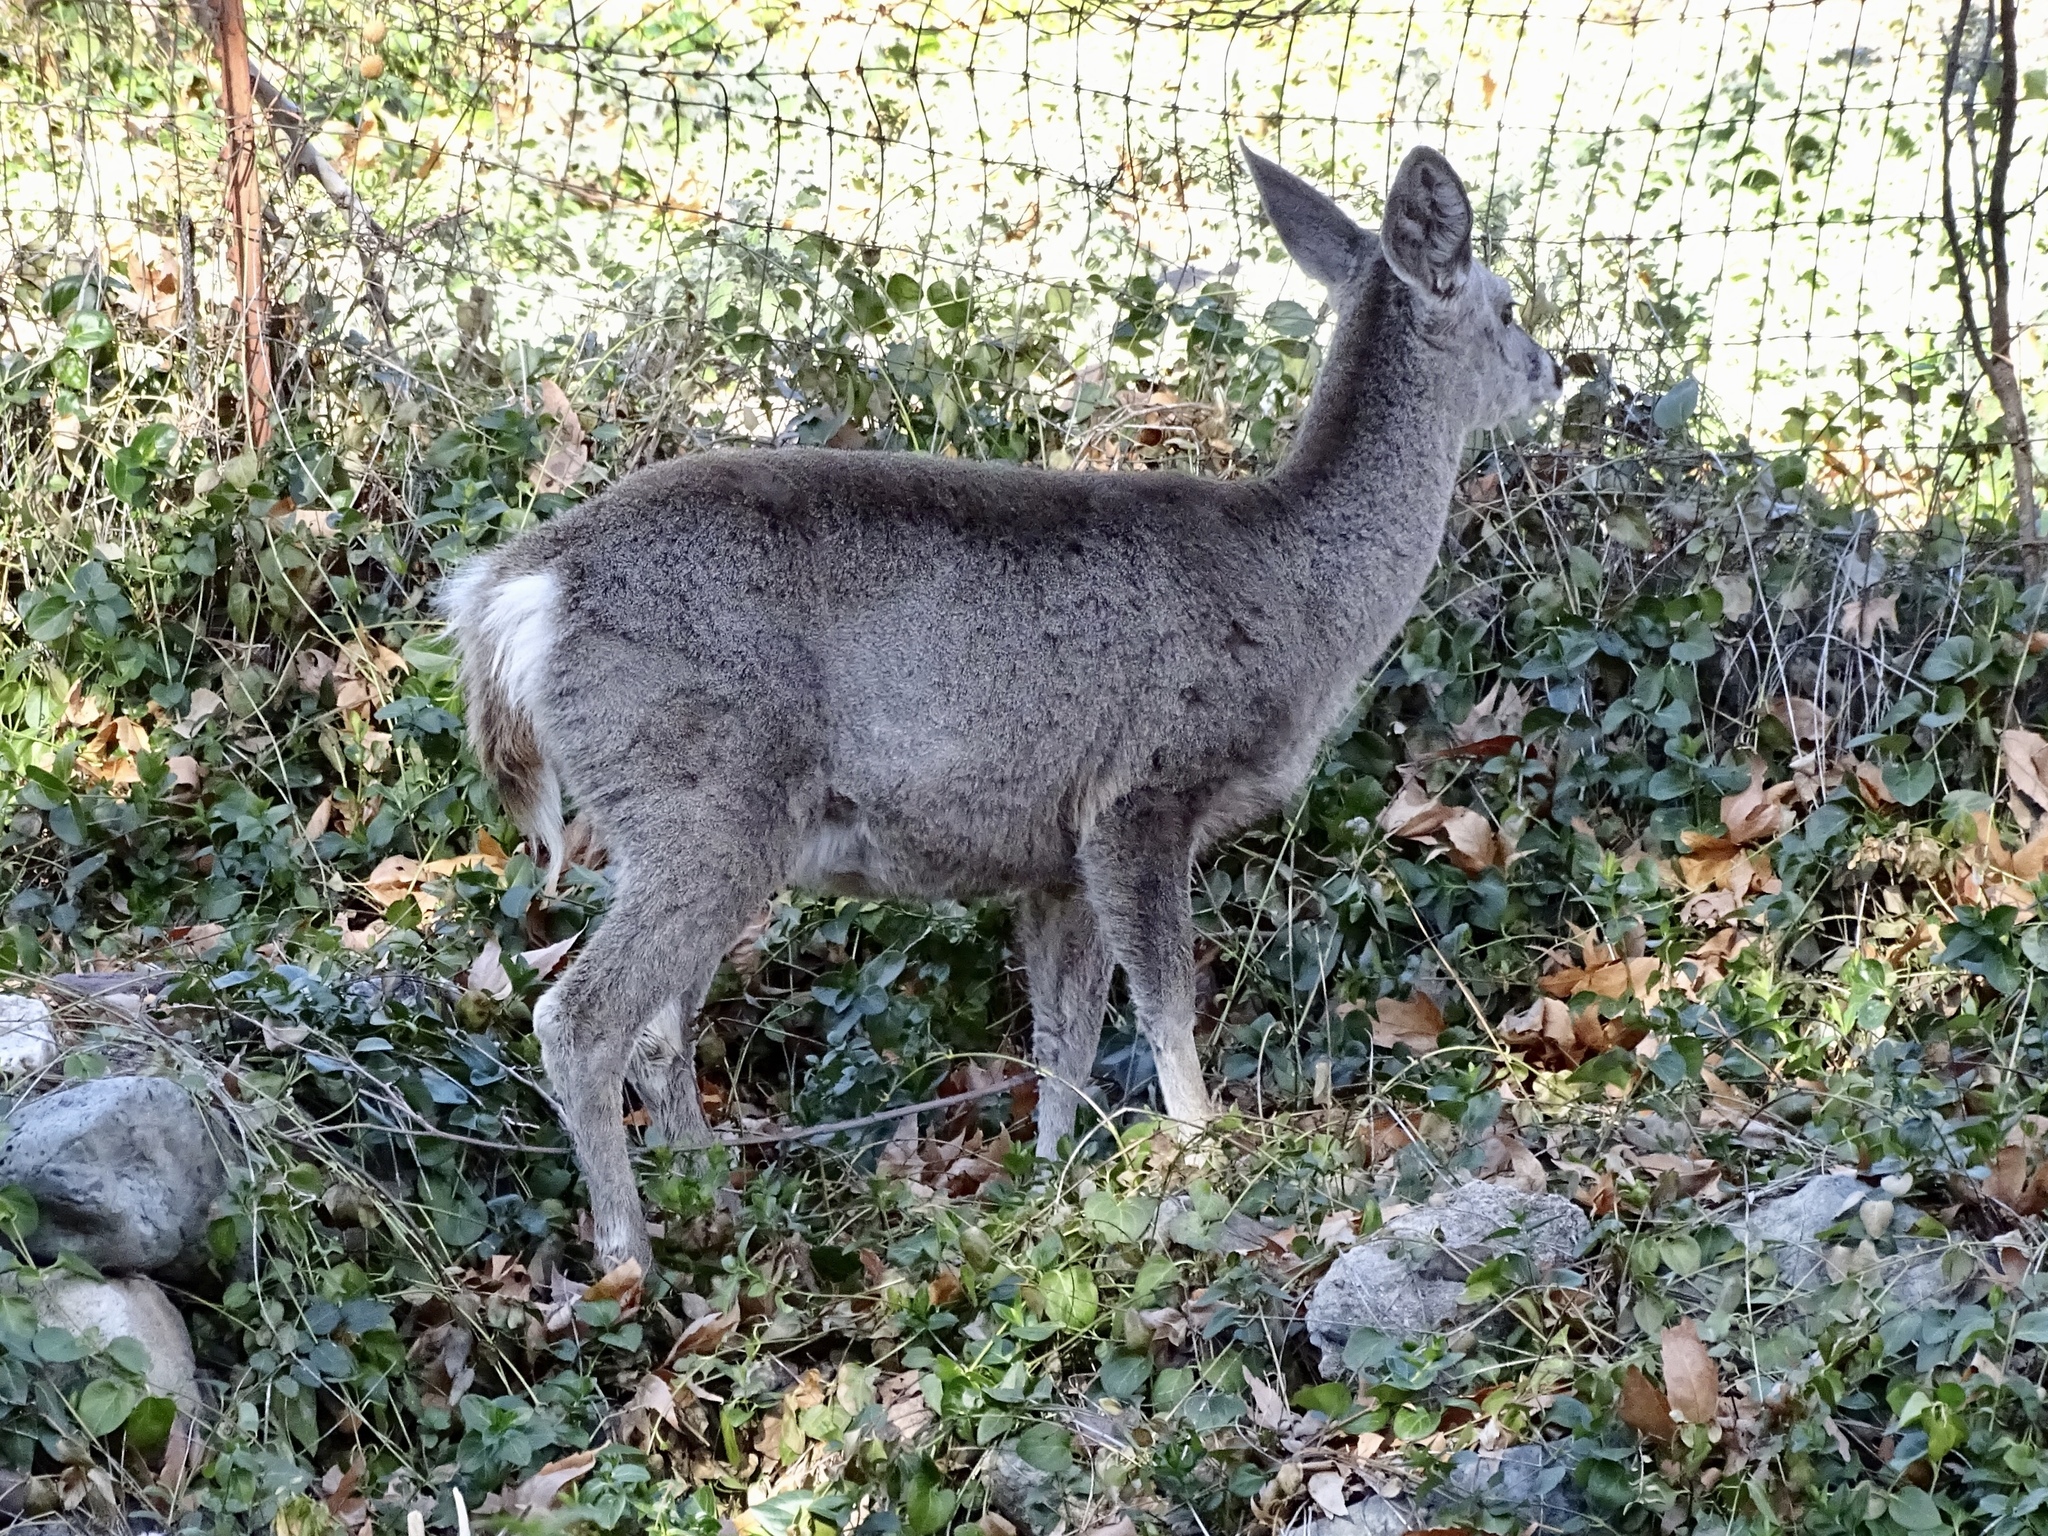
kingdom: Animalia
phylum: Chordata
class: Mammalia
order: Artiodactyla
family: Cervidae
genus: Odocoileus
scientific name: Odocoileus virginianus
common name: White-tailed deer
